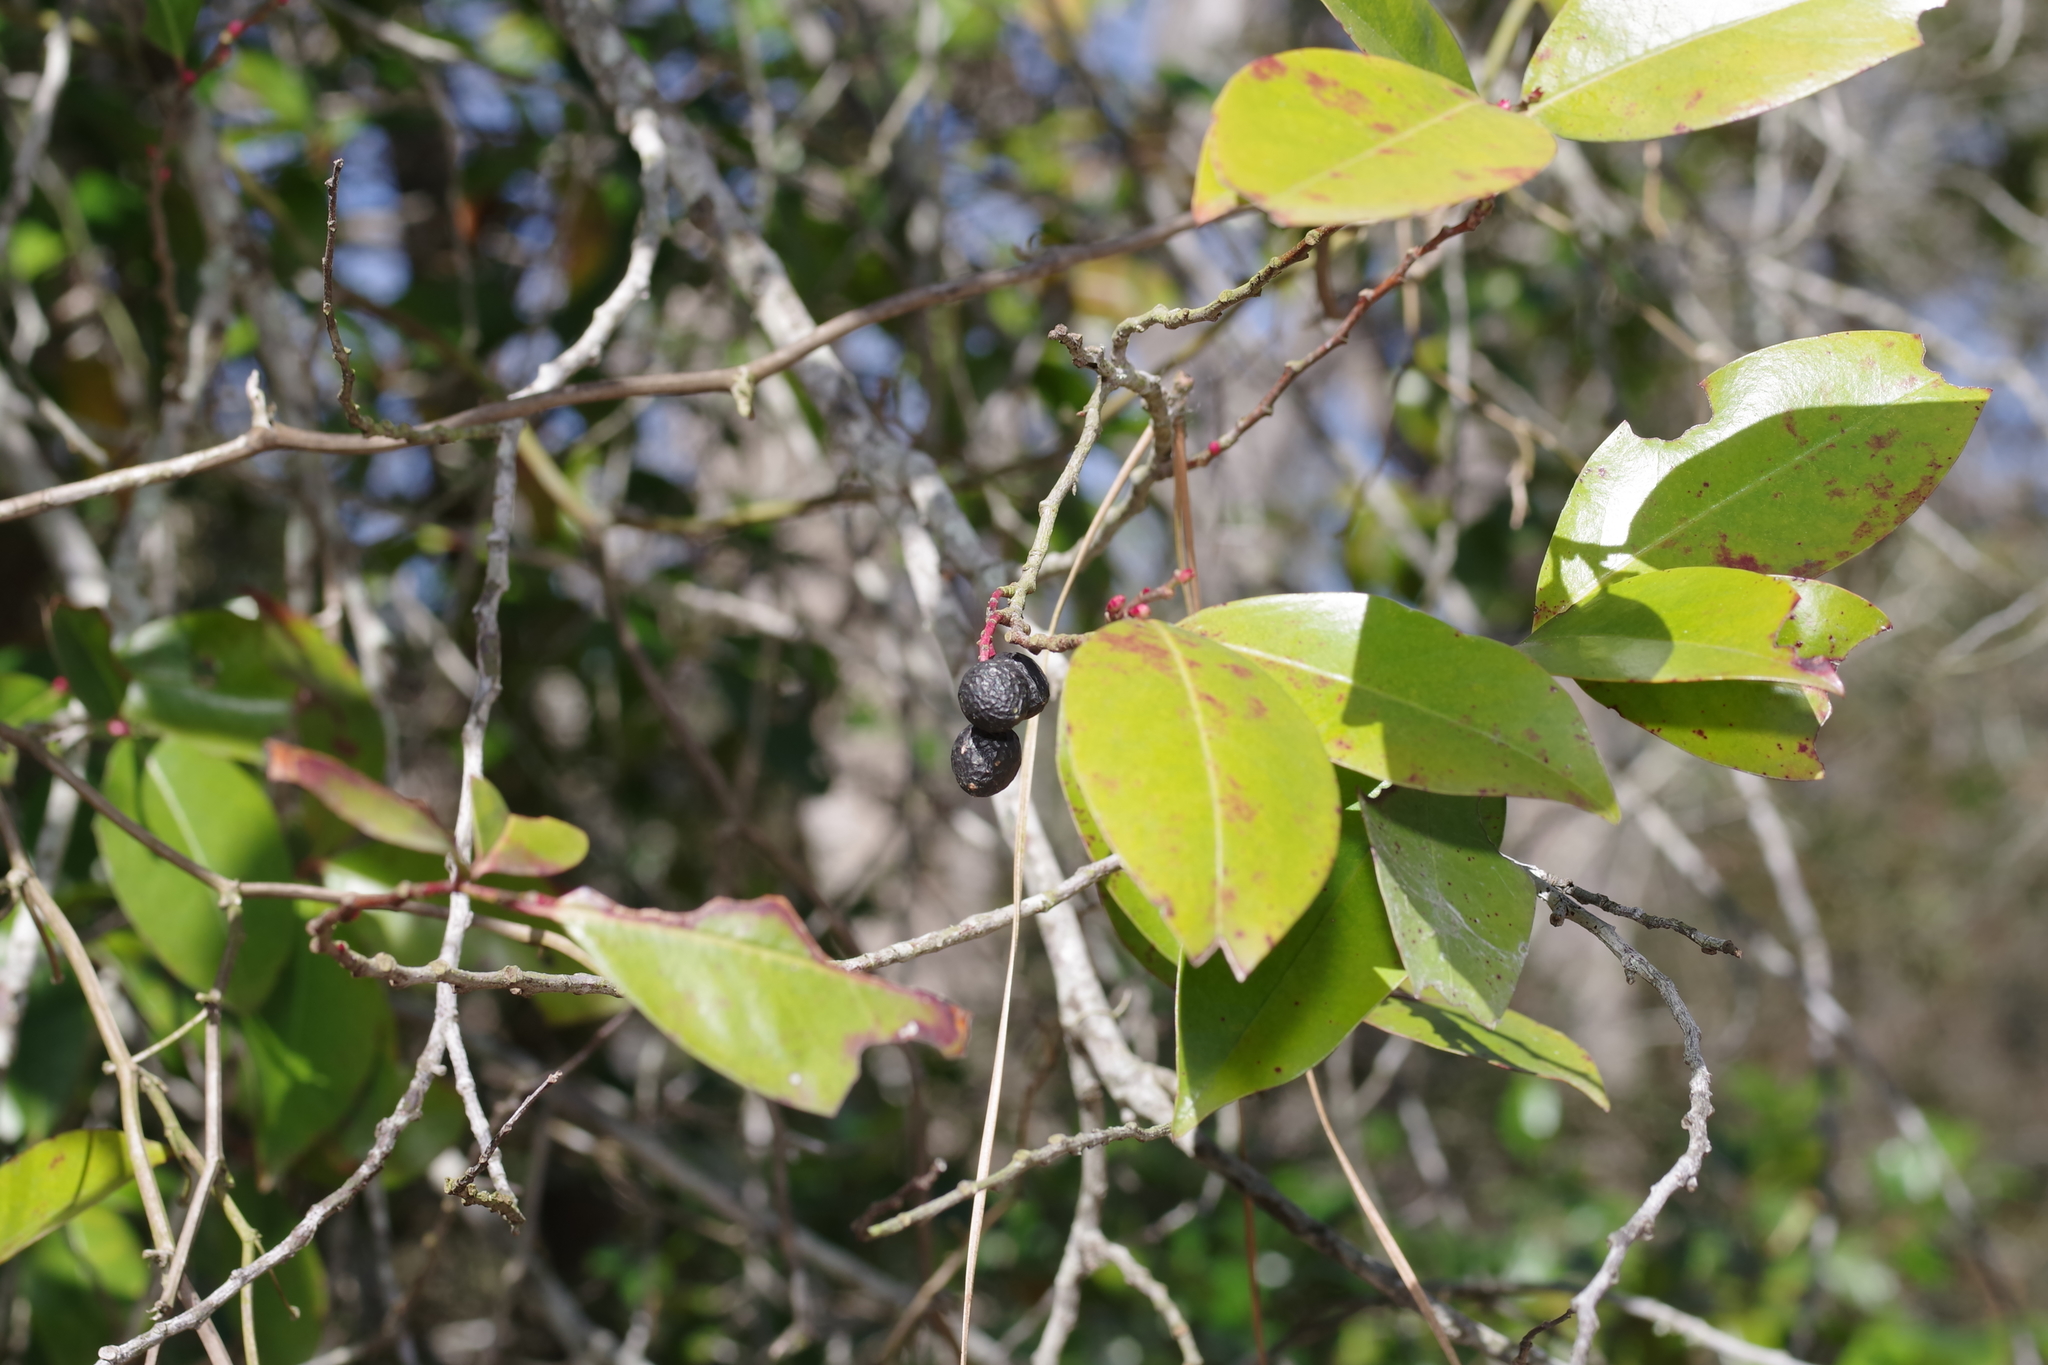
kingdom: Plantae
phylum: Tracheophyta
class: Magnoliopsida
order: Rosales
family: Rosaceae
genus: Prunus
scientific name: Prunus caroliniana
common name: Carolina laurel cherry
